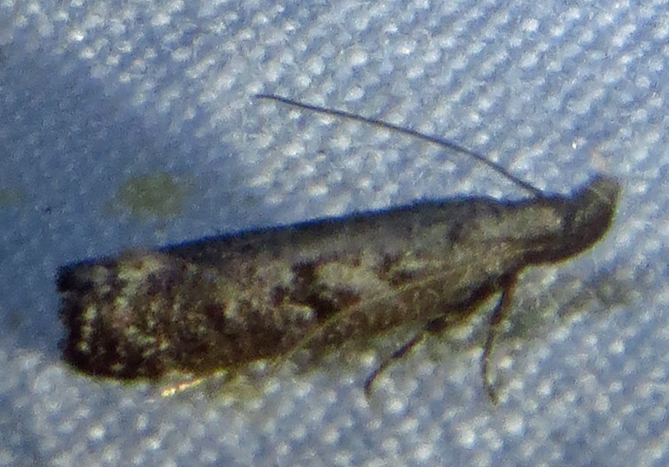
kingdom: Animalia
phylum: Arthropoda
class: Insecta
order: Lepidoptera
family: Gelechiidae
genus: Dichomeris
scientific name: Dichomeris inversella
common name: Inverse dichomeris moth
